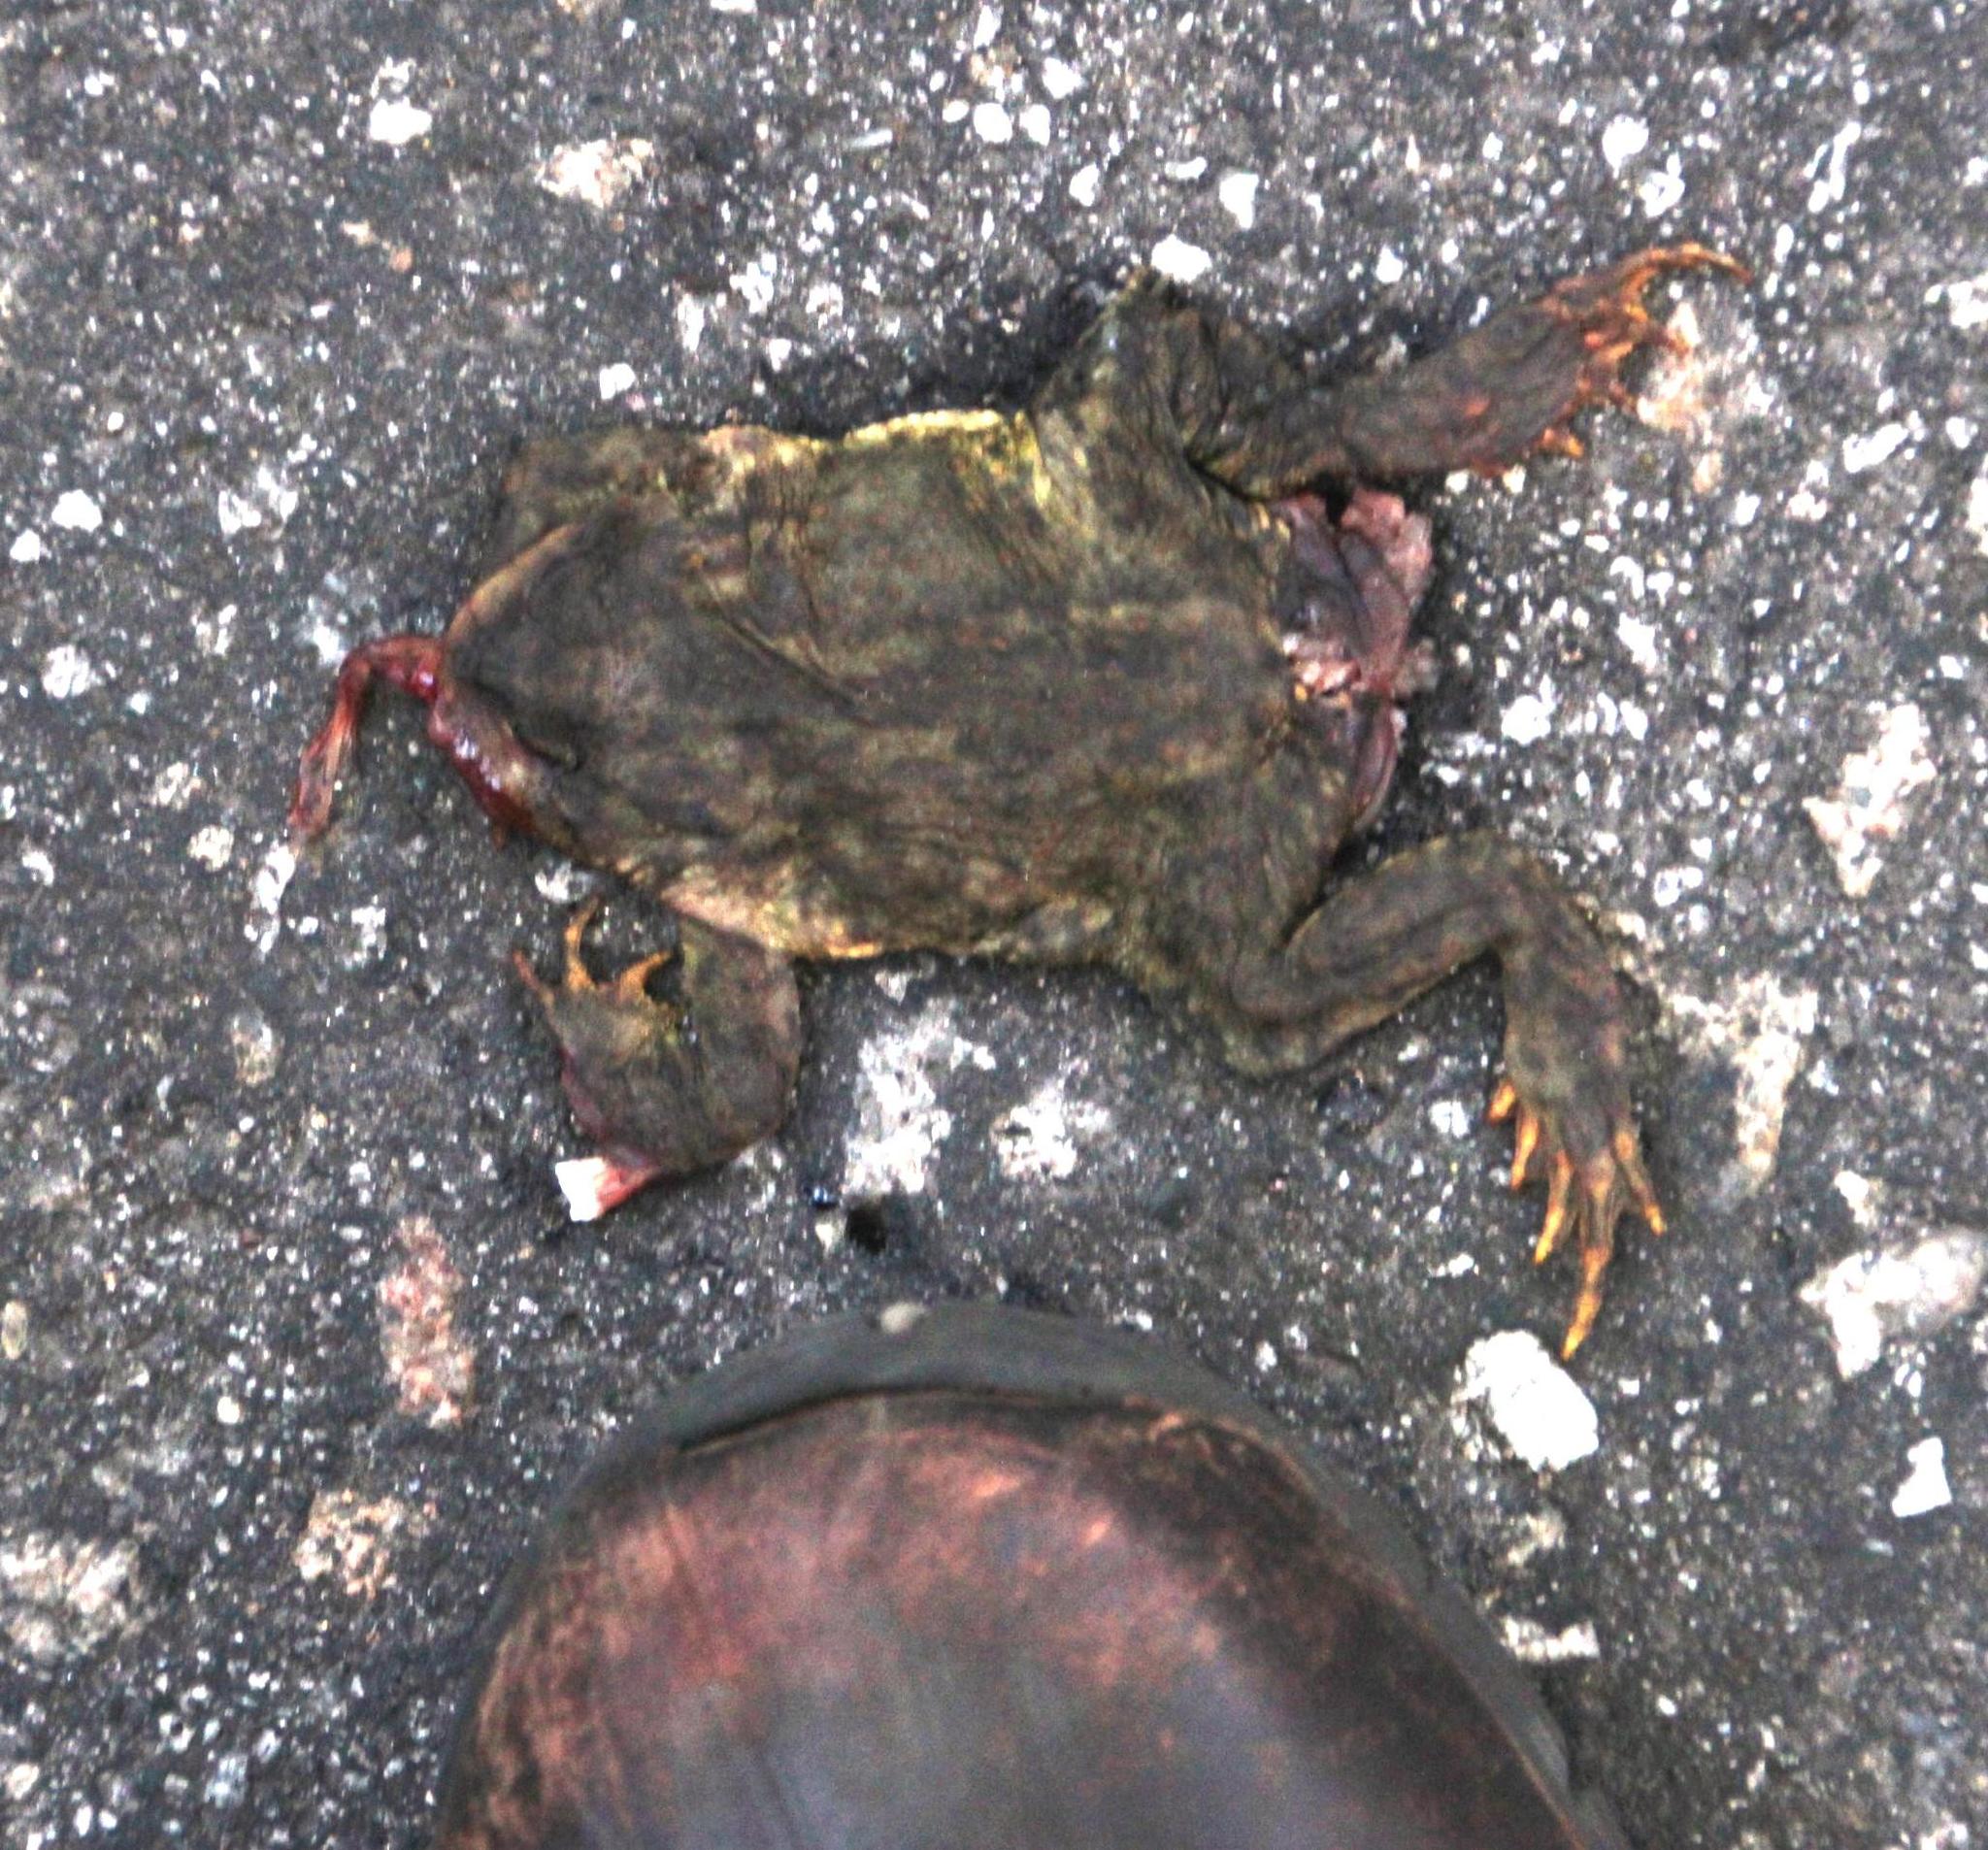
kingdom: Animalia
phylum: Chordata
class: Amphibia
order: Anura
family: Bufonidae
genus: Bufo
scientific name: Bufo spinosus
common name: Western common toad
